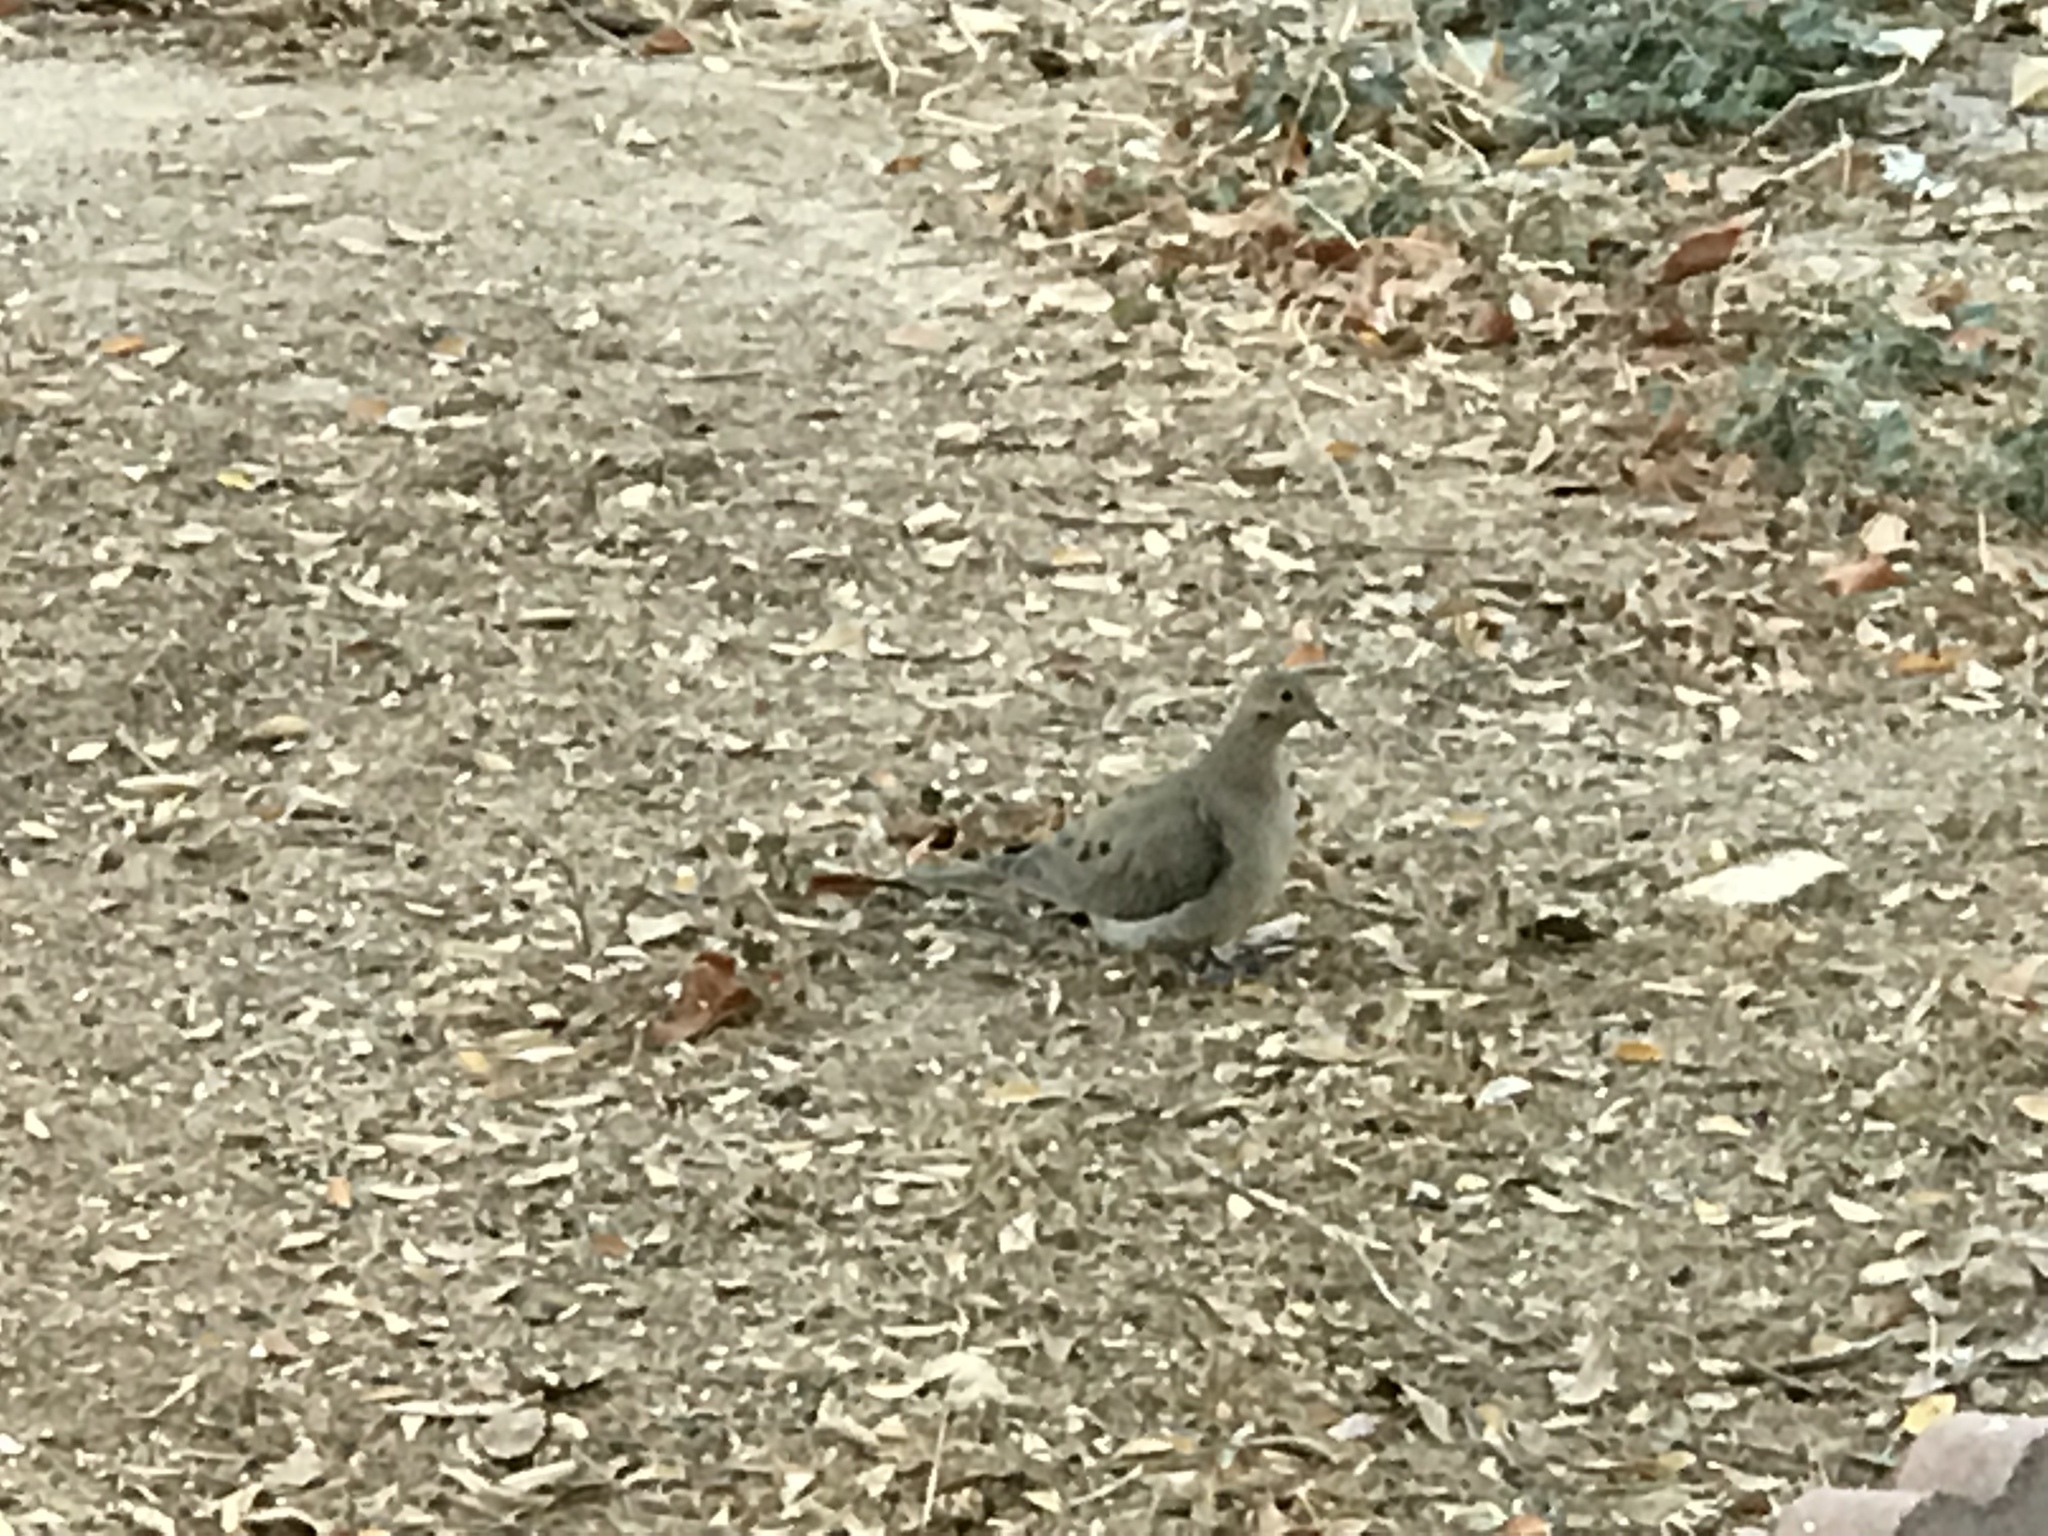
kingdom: Animalia
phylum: Chordata
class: Aves
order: Columbiformes
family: Columbidae
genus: Zenaida
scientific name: Zenaida macroura
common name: Mourning dove
